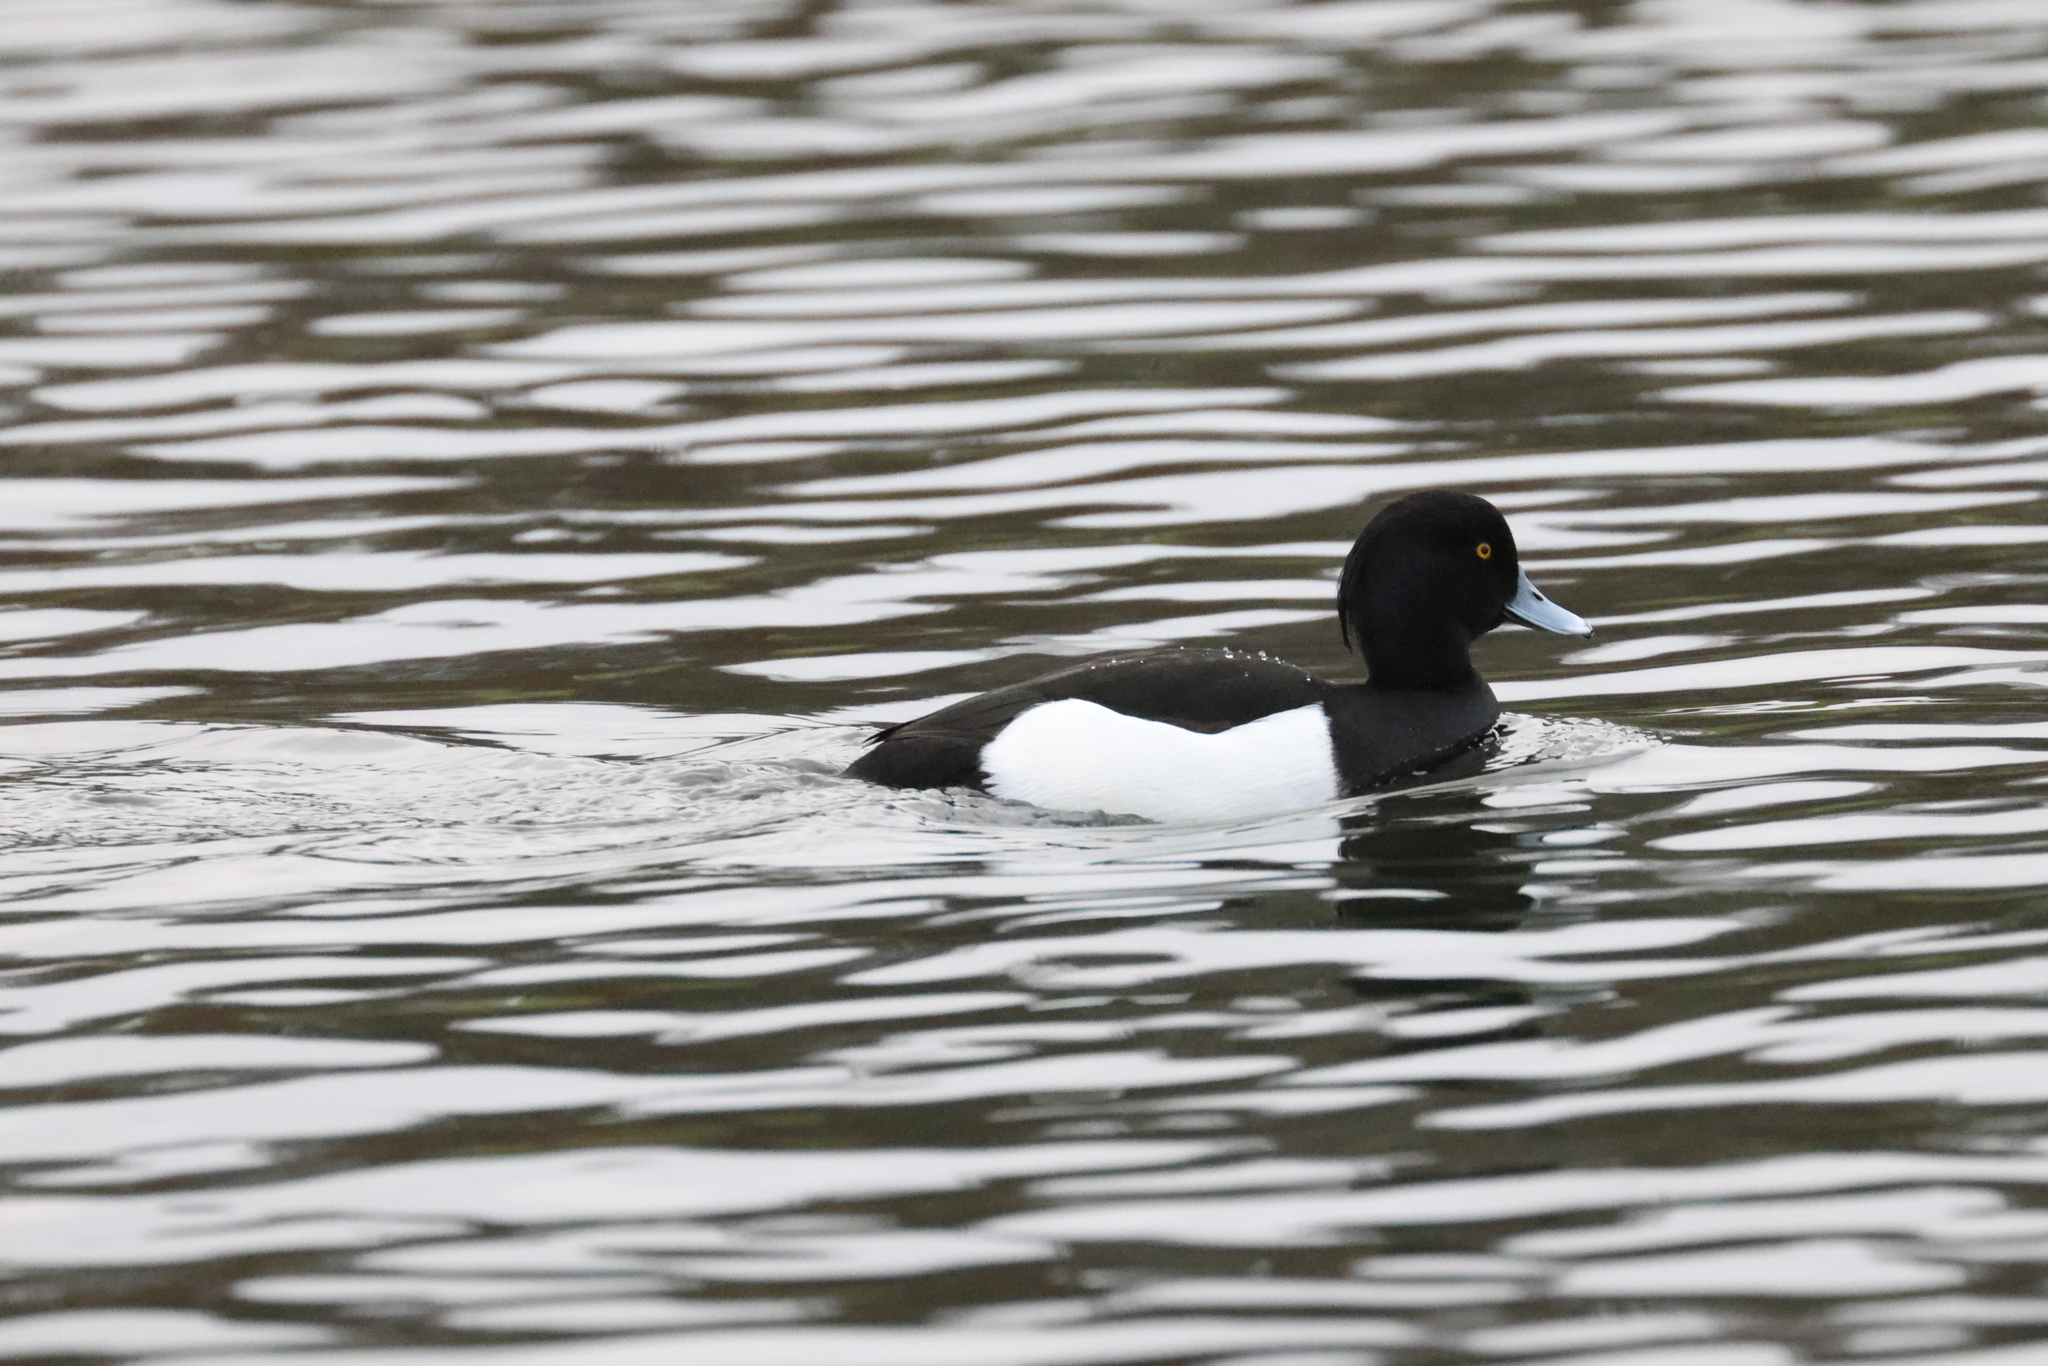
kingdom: Animalia
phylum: Chordata
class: Aves
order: Anseriformes
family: Anatidae
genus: Aythya
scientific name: Aythya fuligula
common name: Tufted duck
